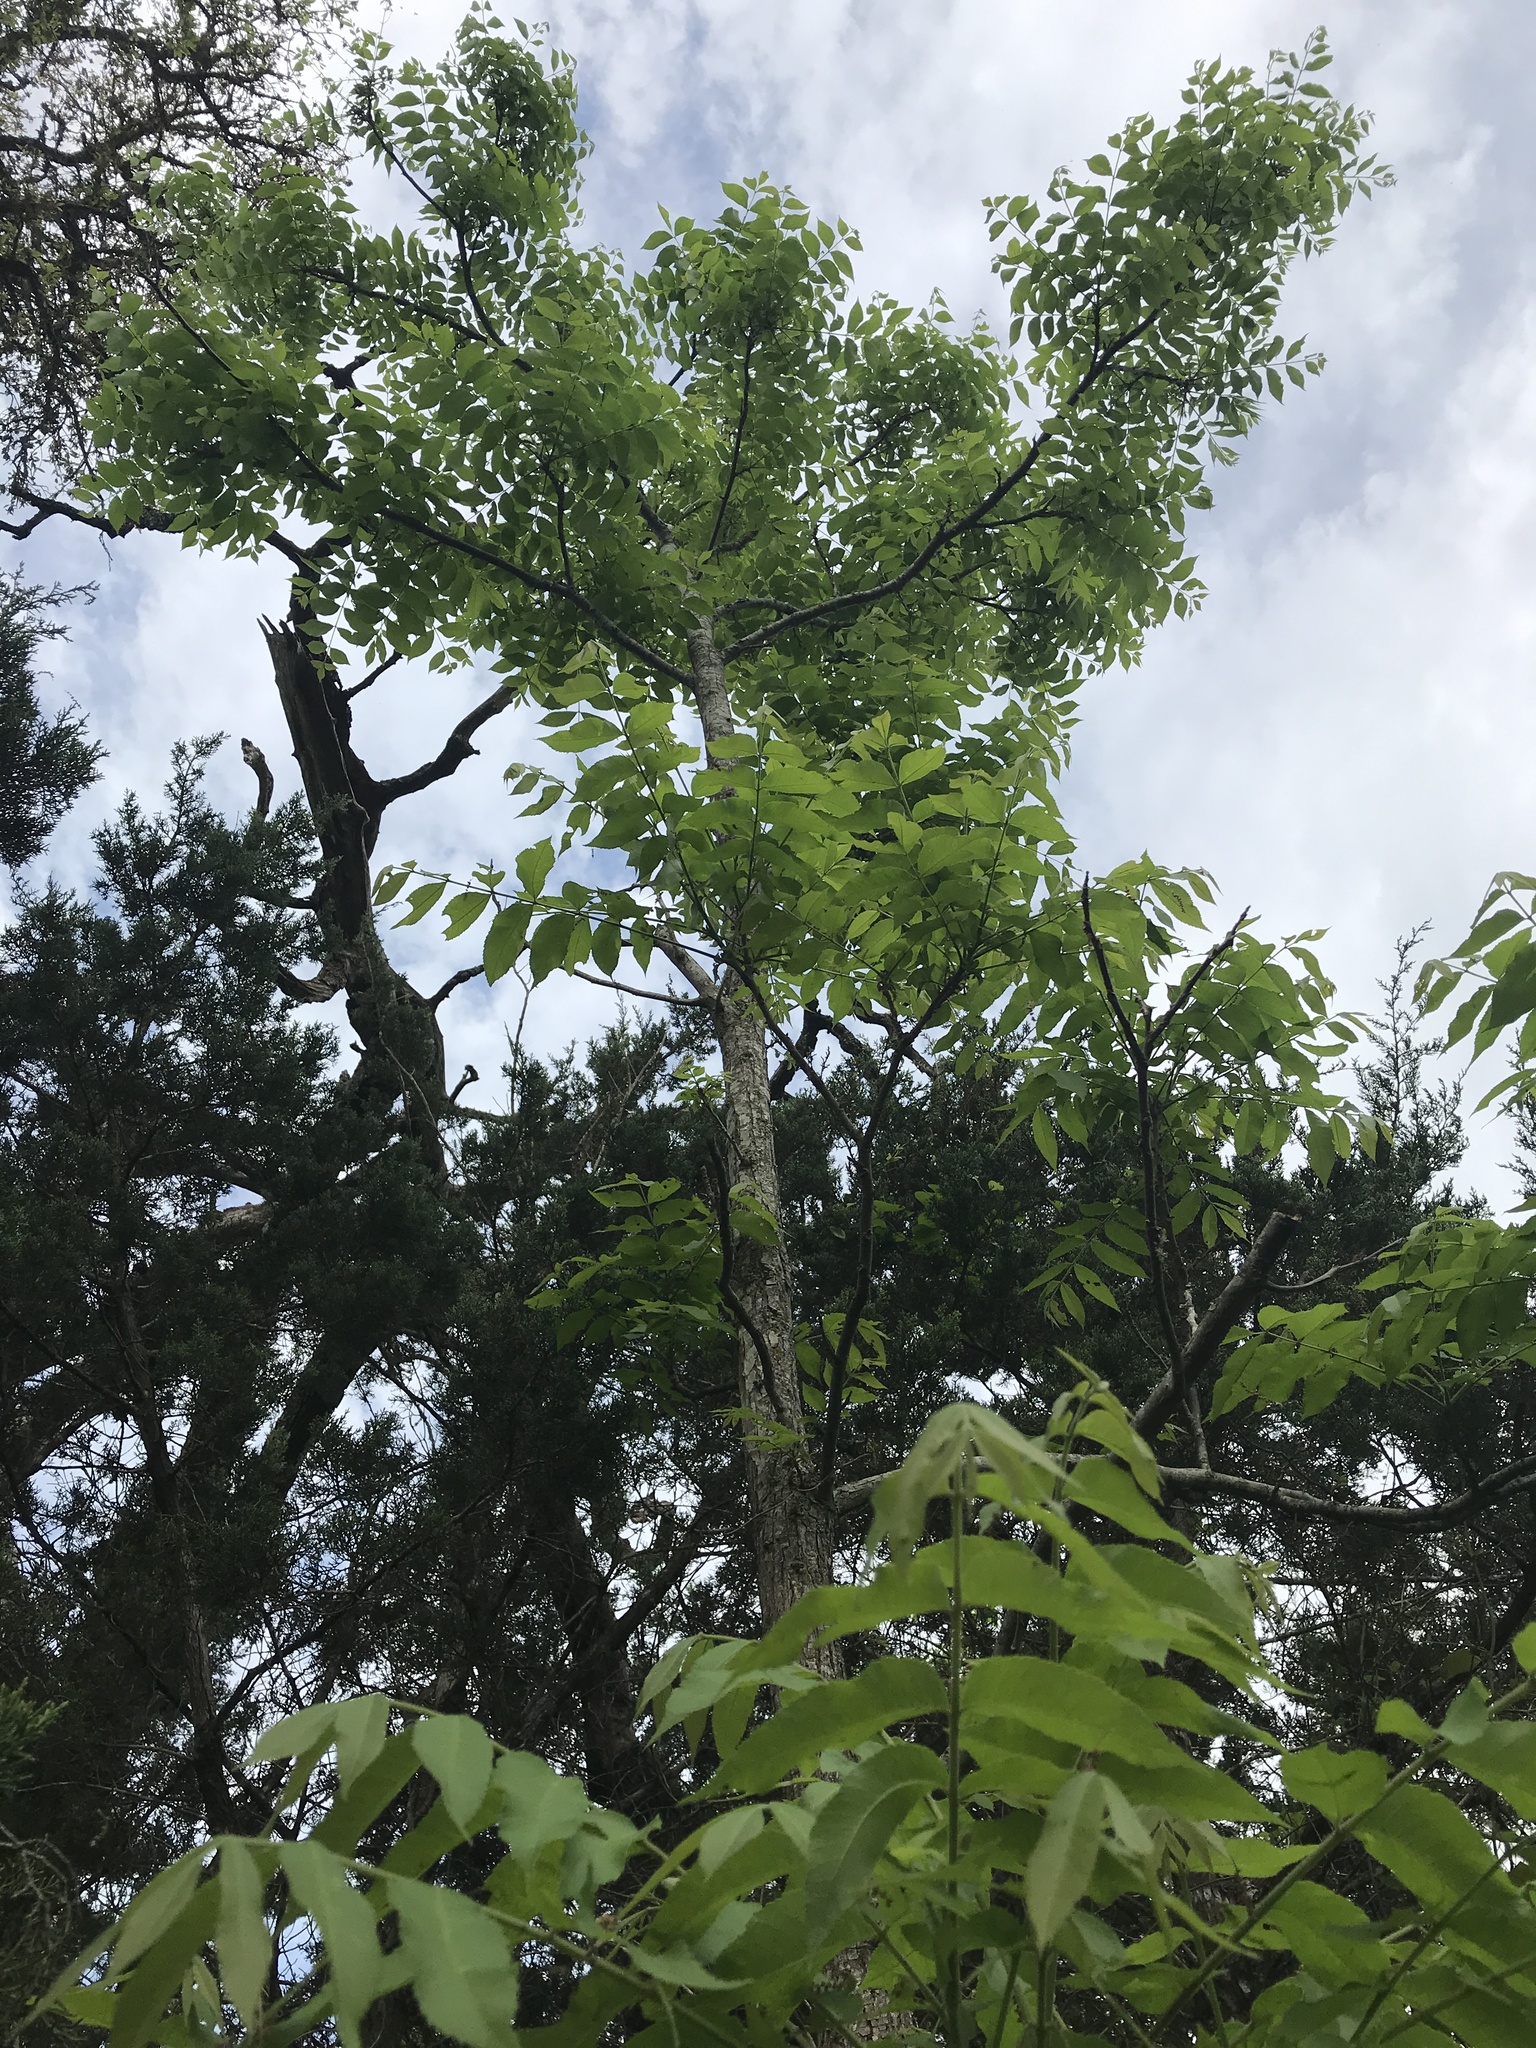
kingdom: Plantae
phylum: Tracheophyta
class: Magnoliopsida
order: Fagales
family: Juglandaceae
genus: Carya
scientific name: Carya illinoinensis
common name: Pecan
